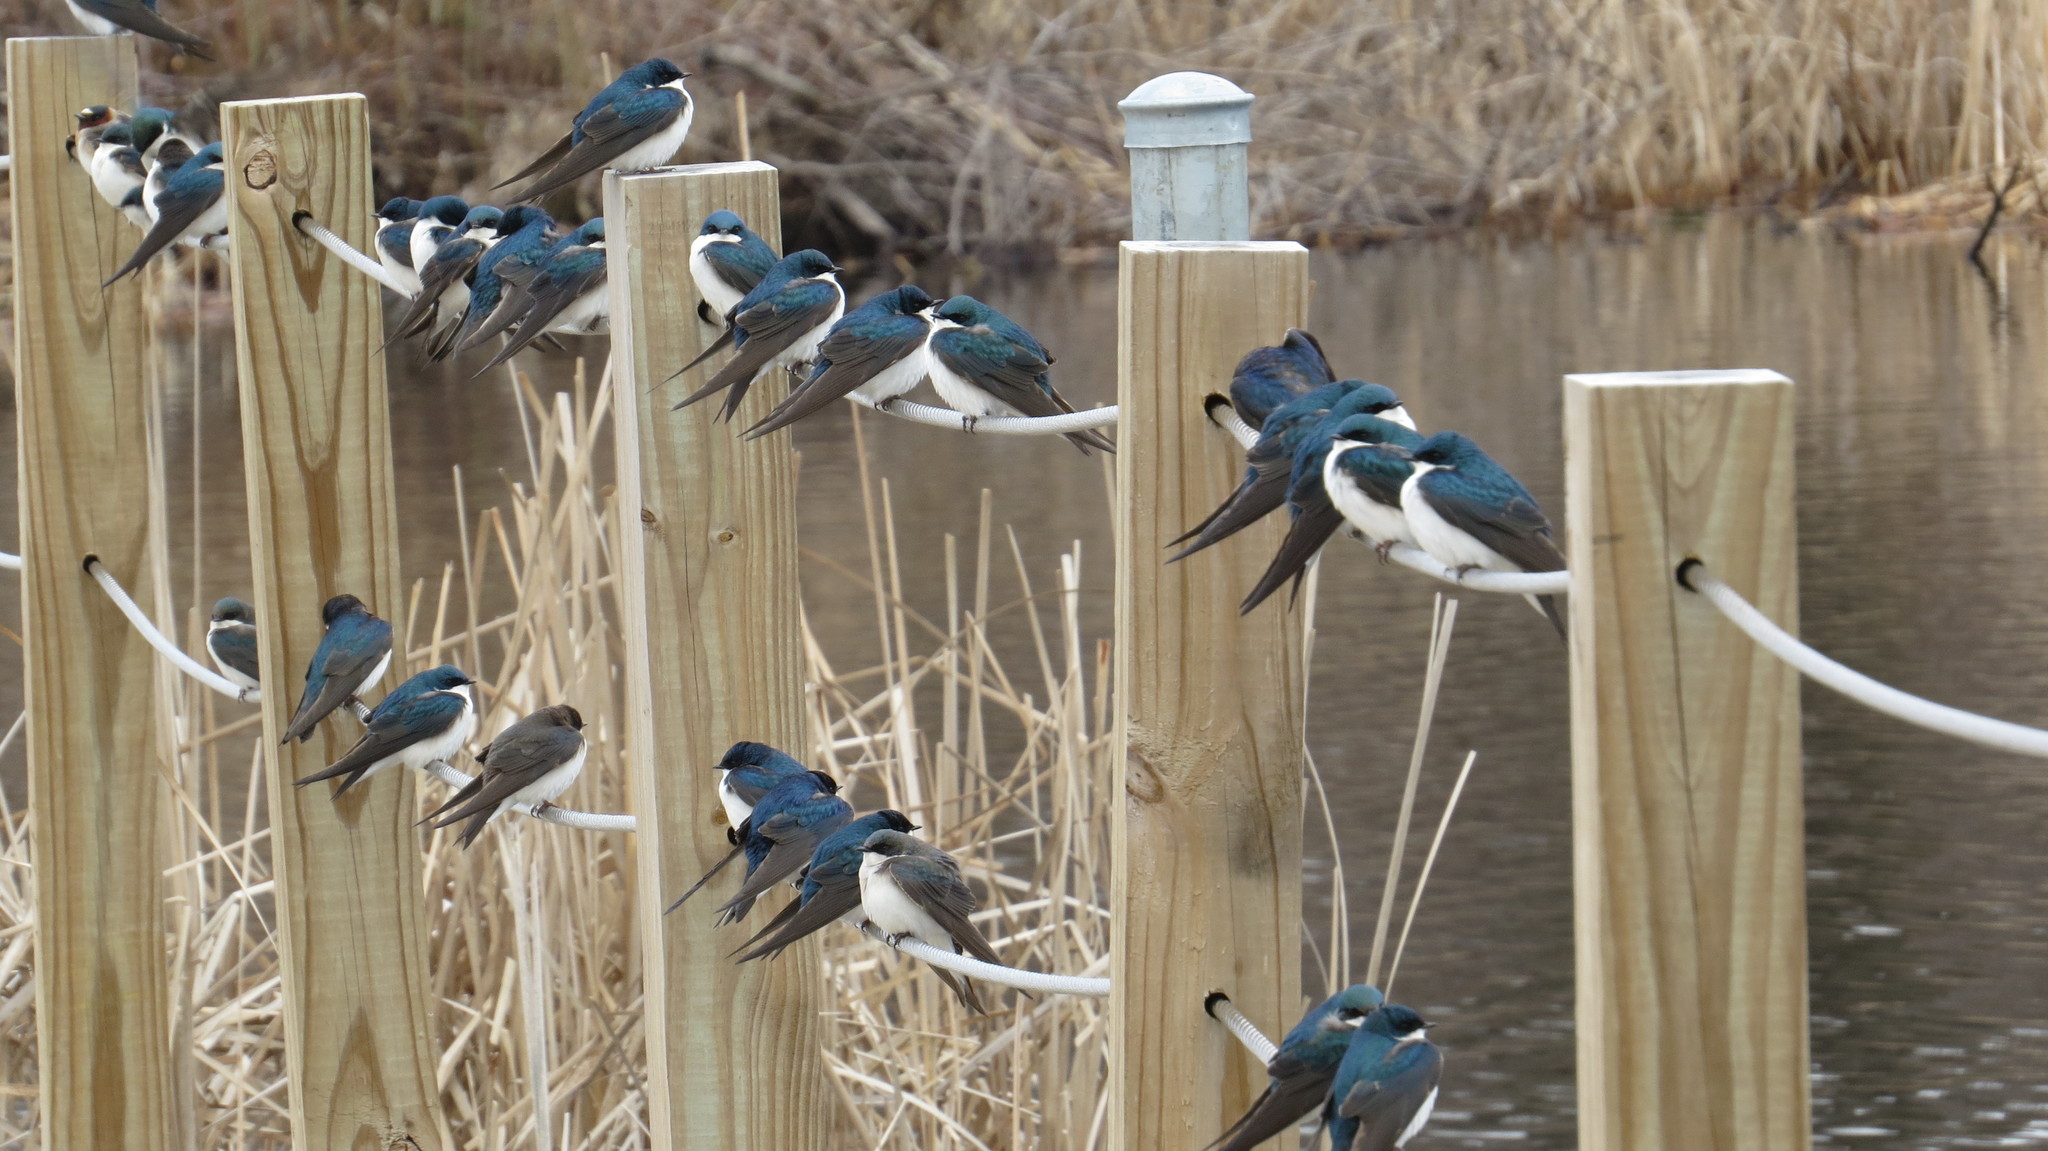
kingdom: Animalia
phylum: Chordata
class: Aves
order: Passeriformes
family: Hirundinidae
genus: Tachycineta
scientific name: Tachycineta bicolor
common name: Tree swallow
